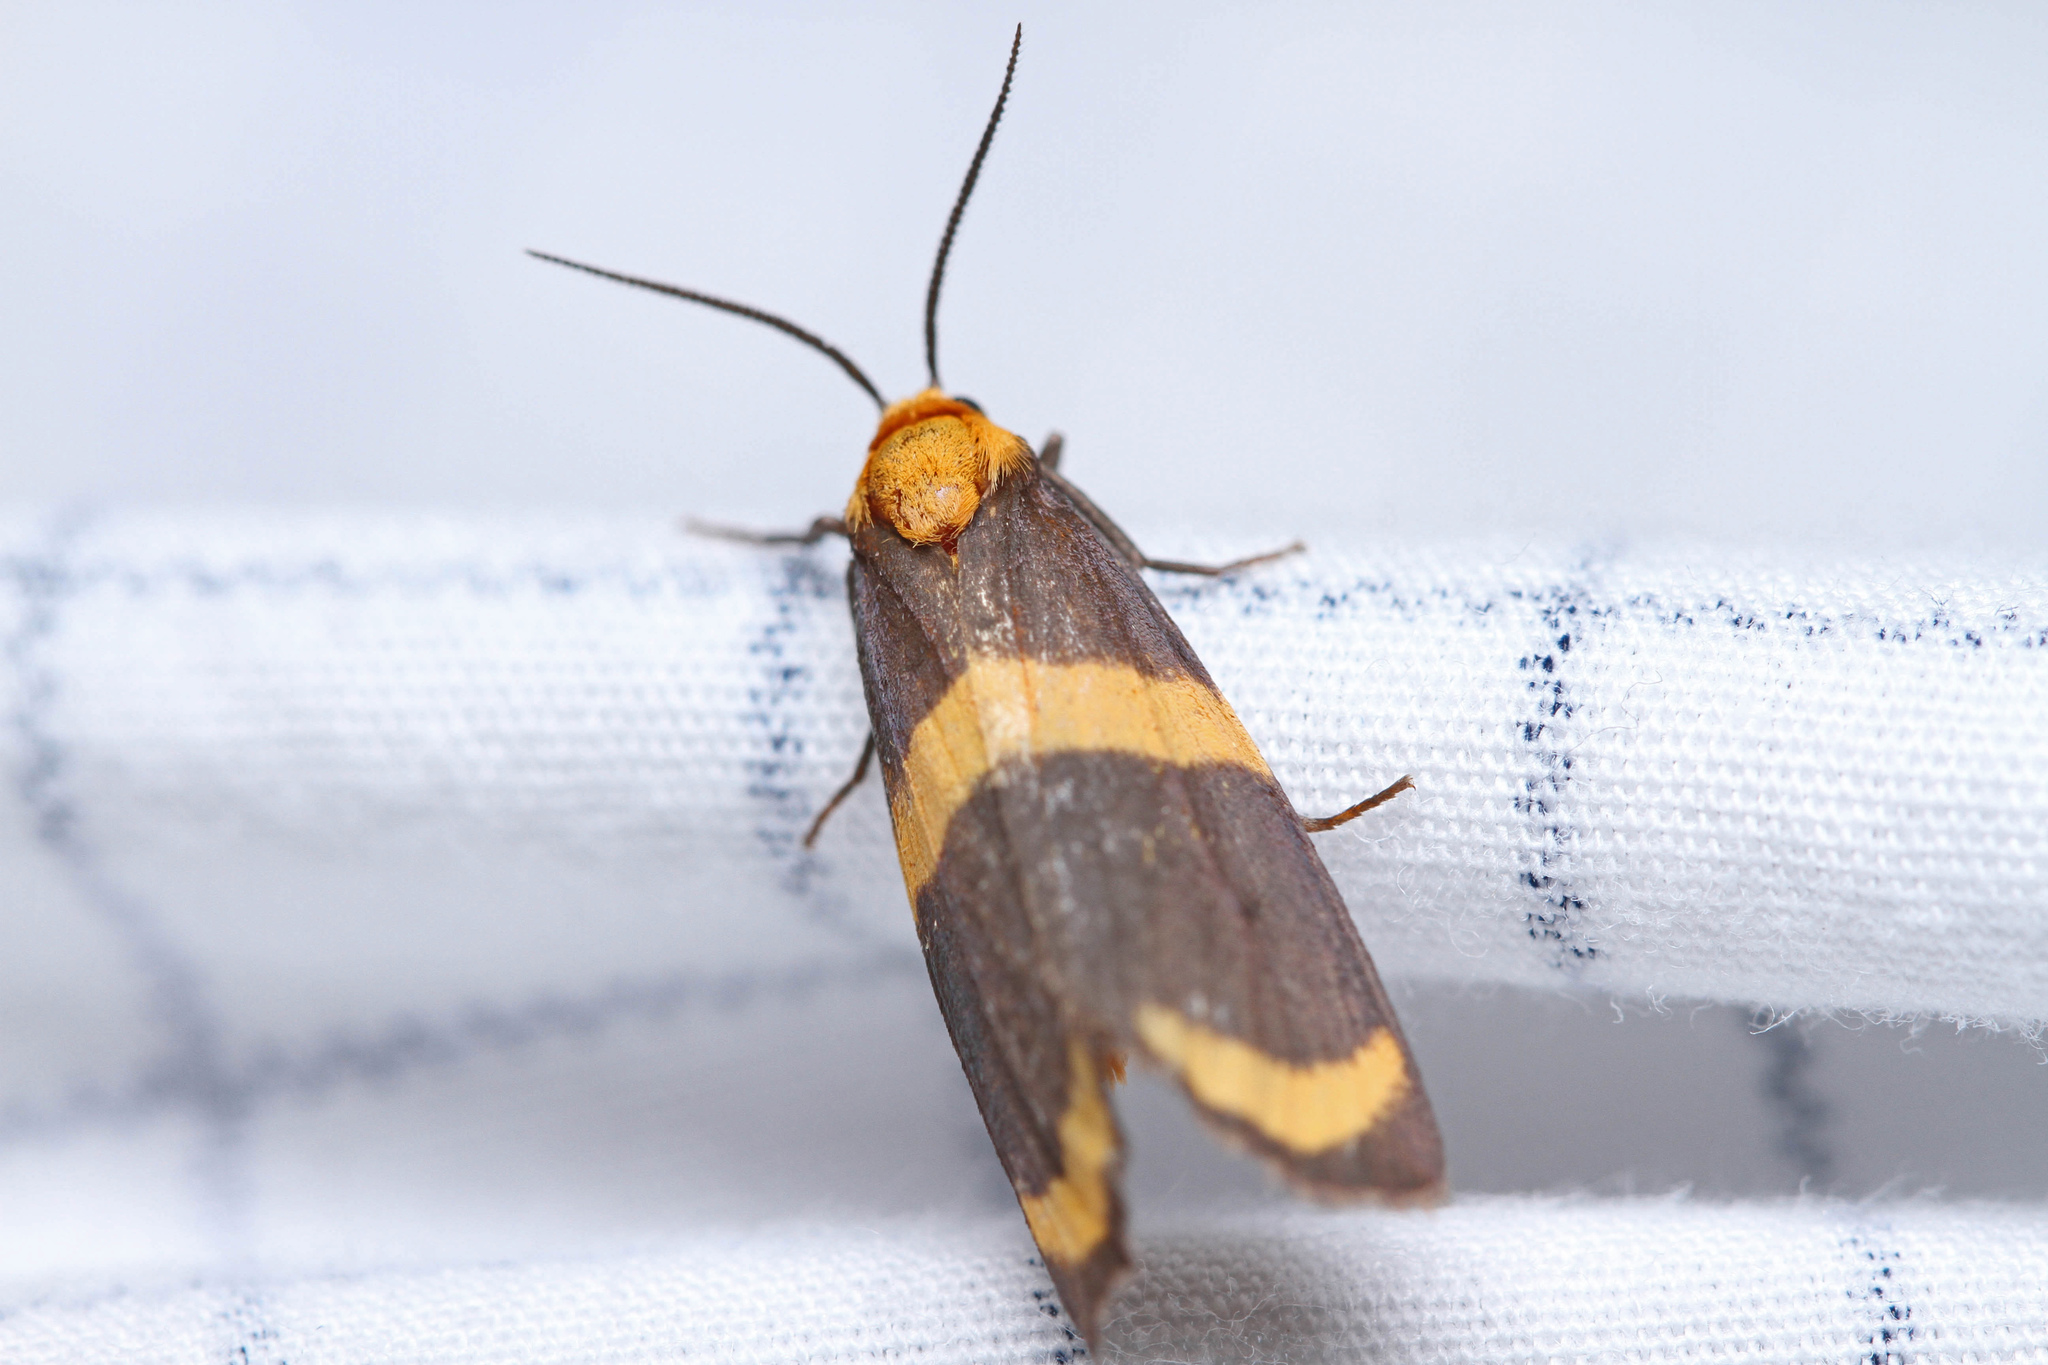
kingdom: Animalia
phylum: Arthropoda
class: Insecta
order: Lepidoptera
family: Erebidae
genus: Eudesmia
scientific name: Eudesmia arida
